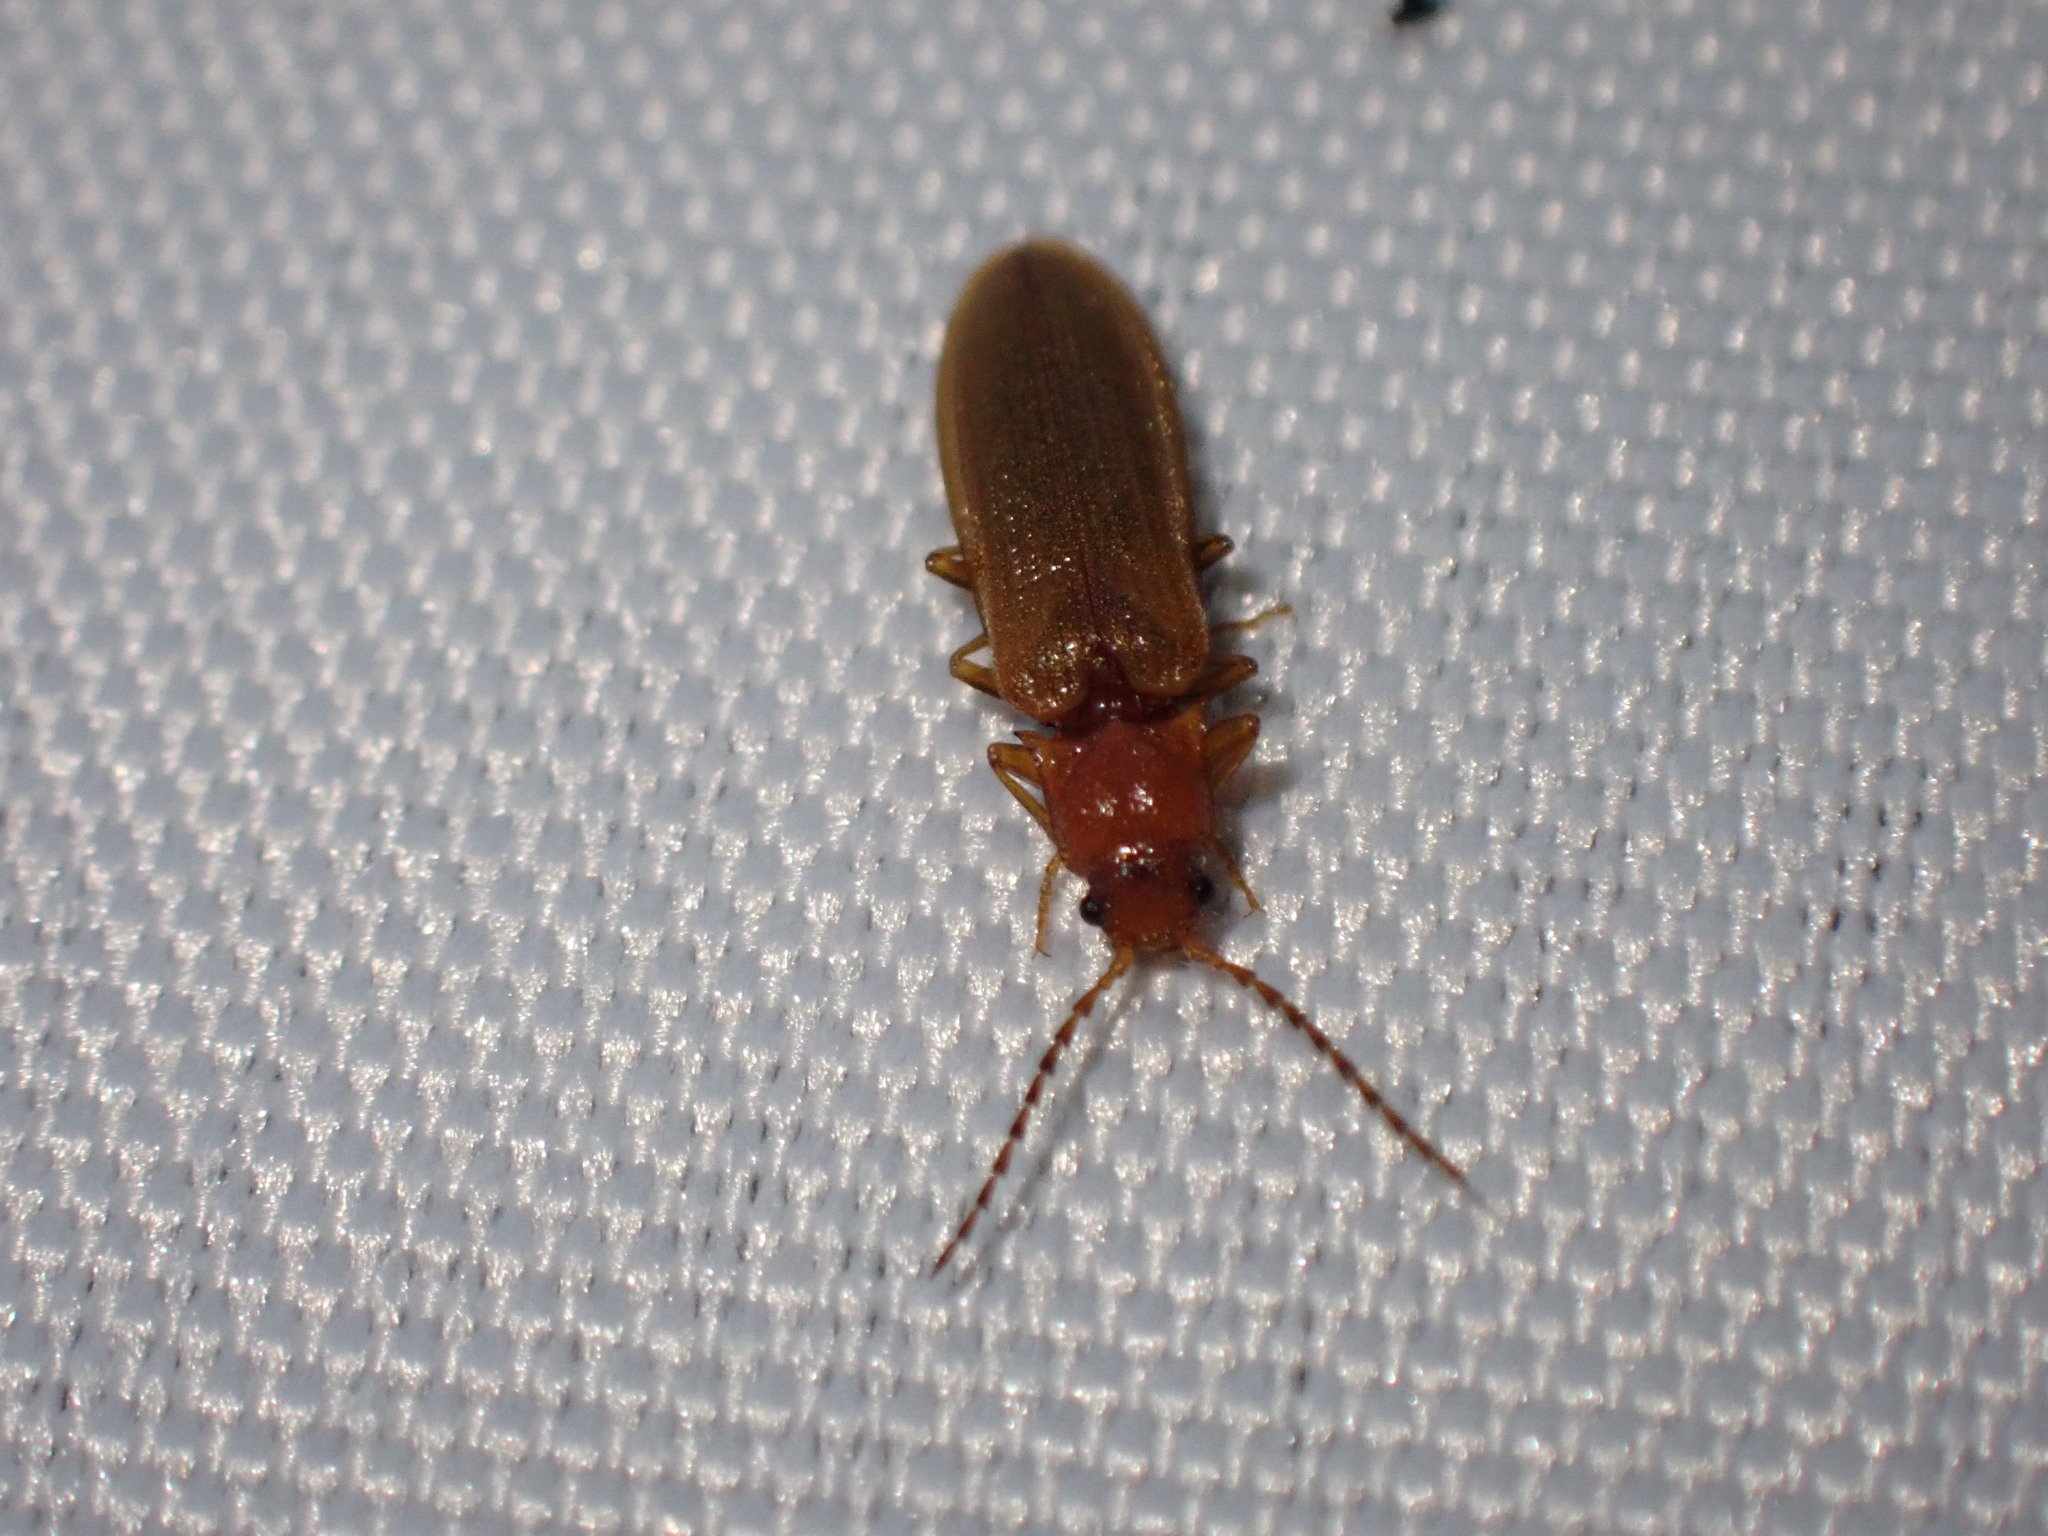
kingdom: Animalia
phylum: Arthropoda
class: Insecta
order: Coleoptera
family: Elateridae
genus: Denticollis
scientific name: Denticollis linearis
